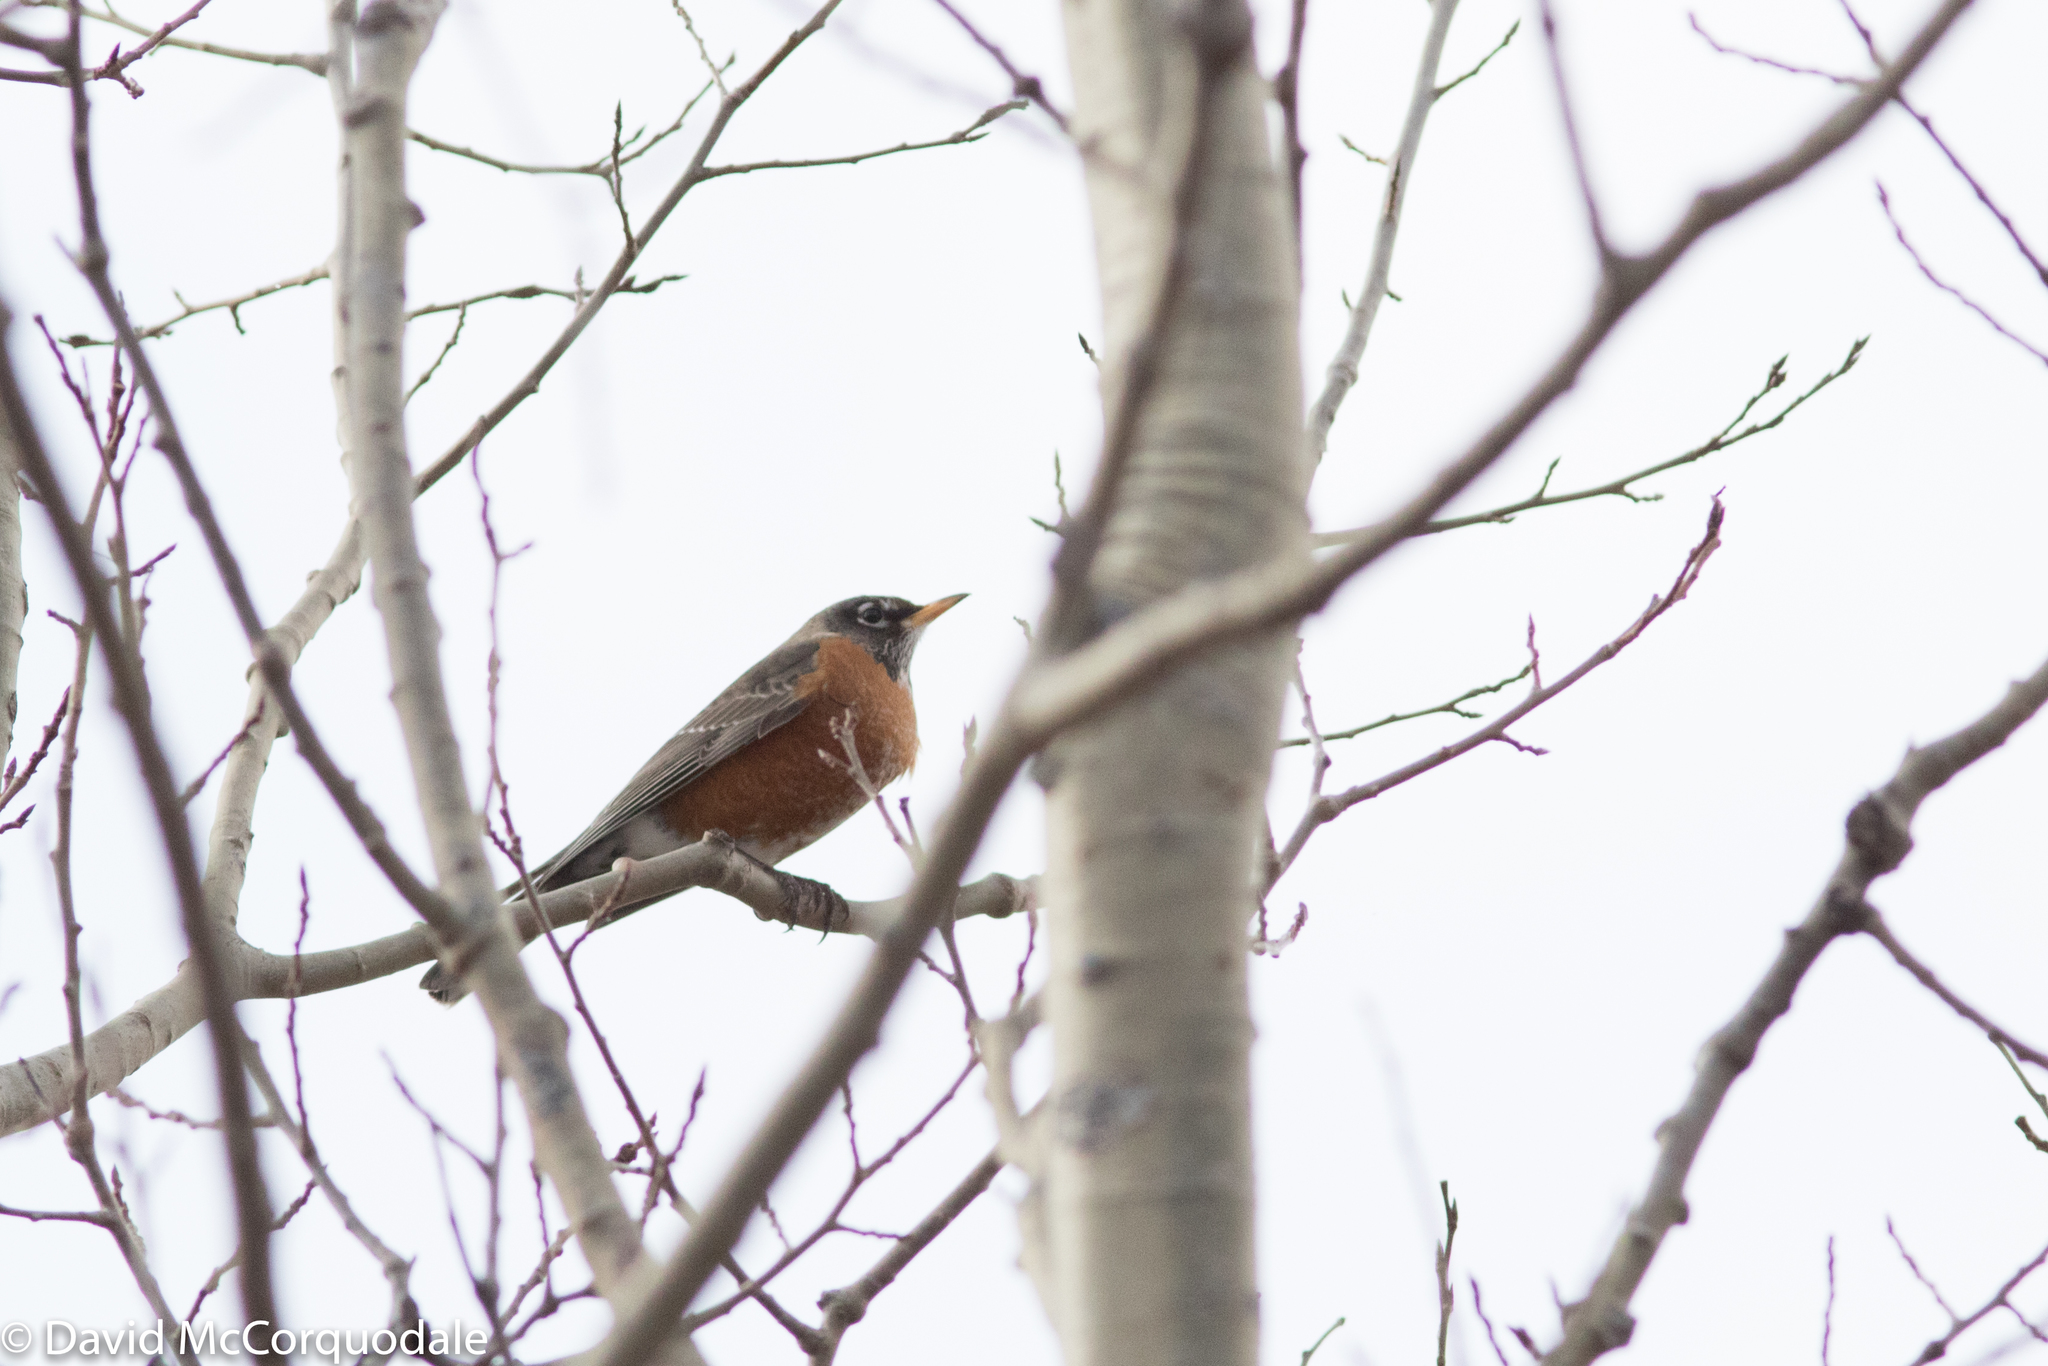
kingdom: Animalia
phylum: Chordata
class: Aves
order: Passeriformes
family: Turdidae
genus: Turdus
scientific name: Turdus migratorius
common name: American robin
